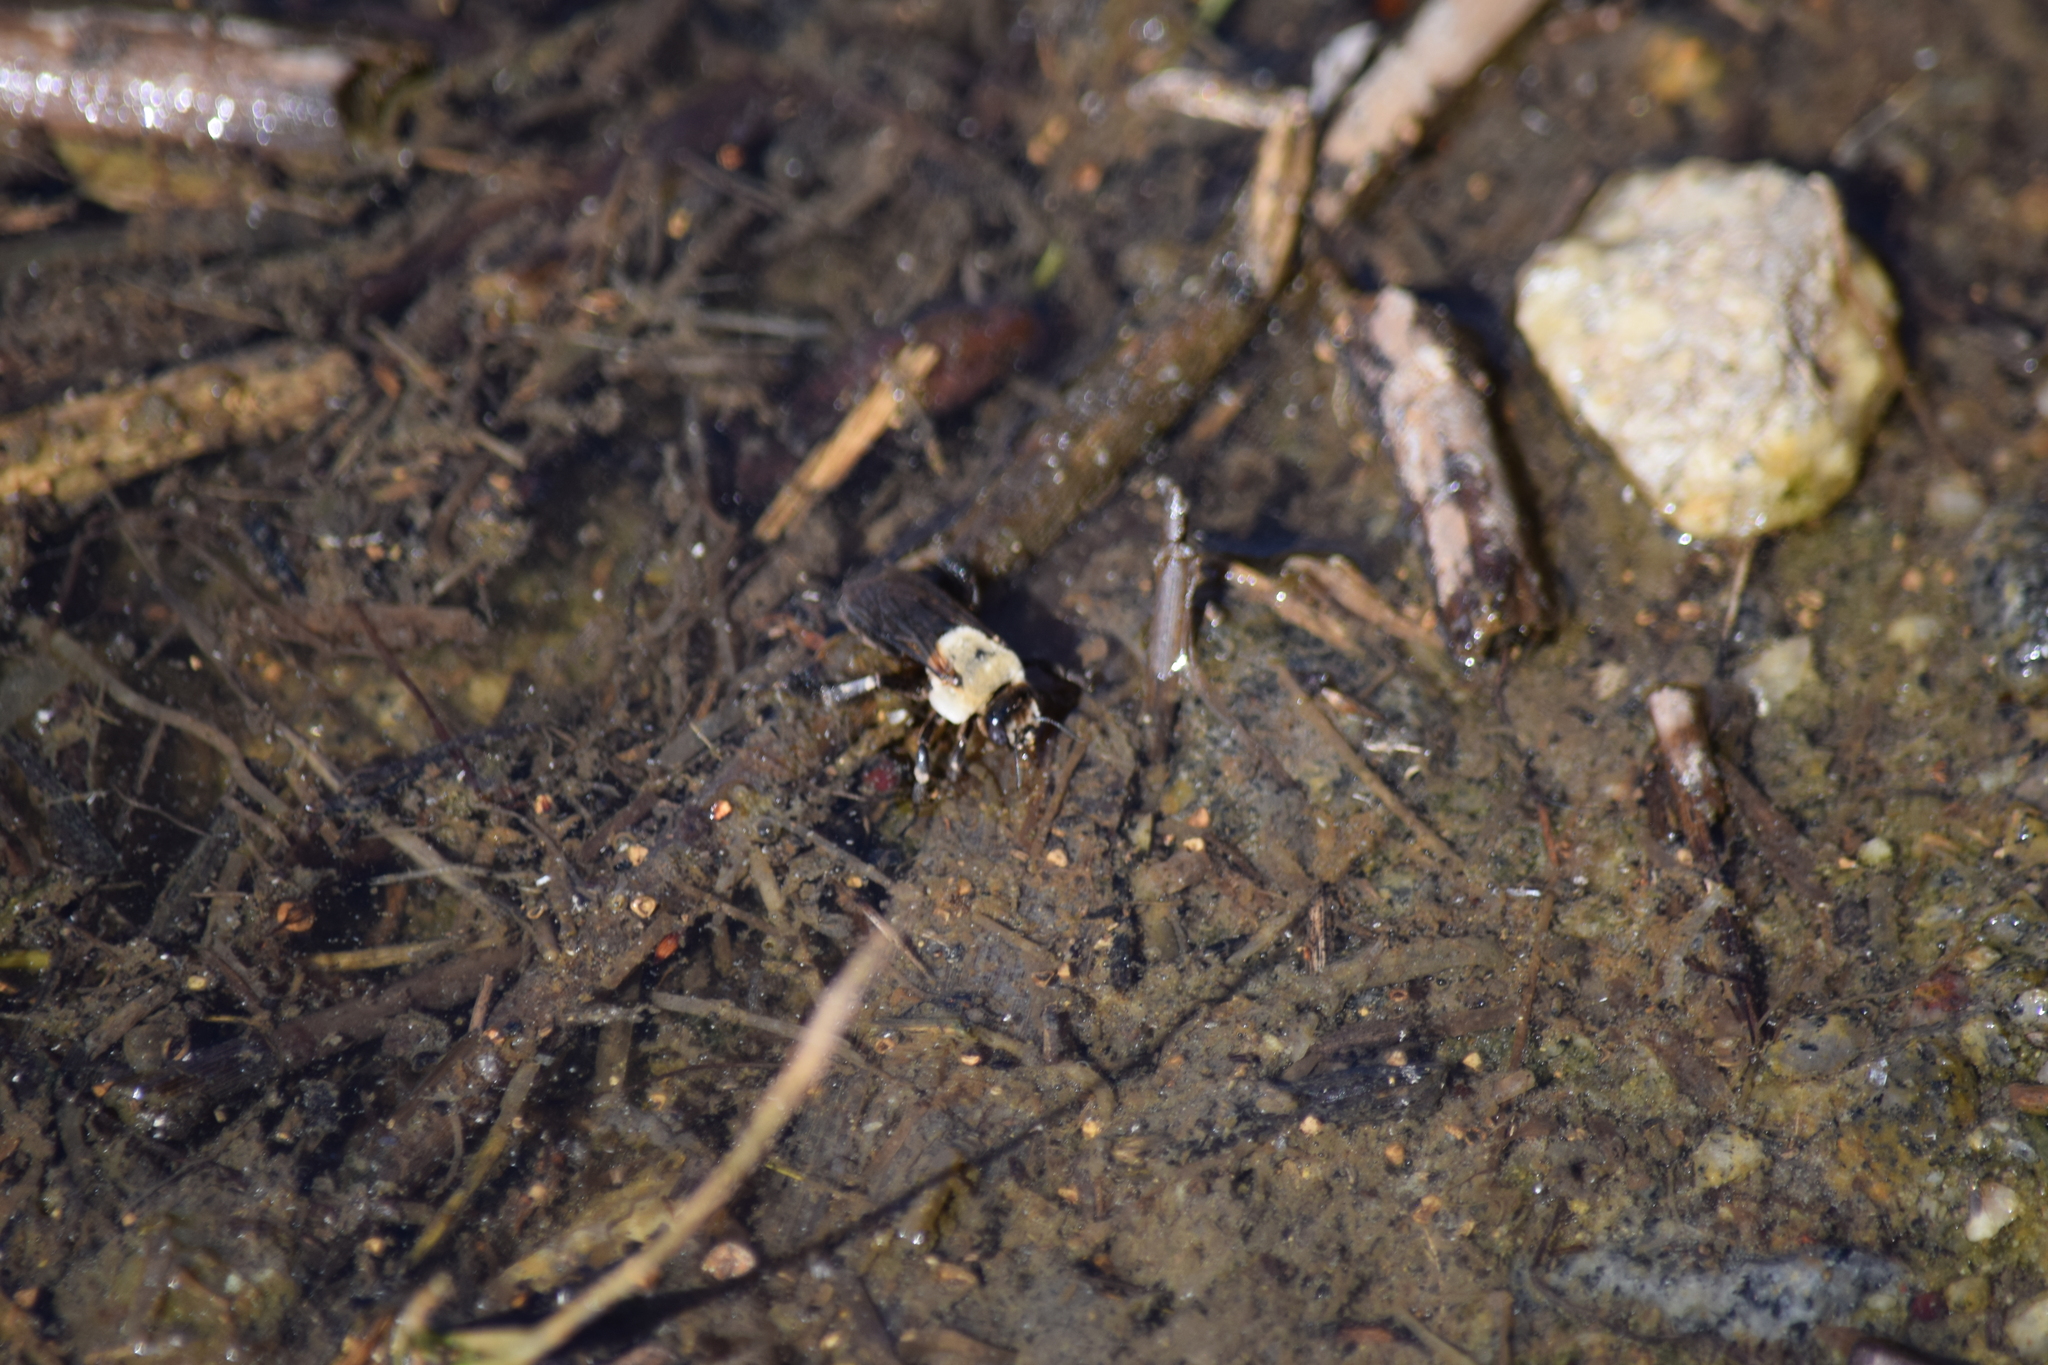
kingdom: Animalia
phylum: Arthropoda
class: Insecta
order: Hymenoptera
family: Apidae
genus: Ptilothrix
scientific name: Ptilothrix bombiformis
